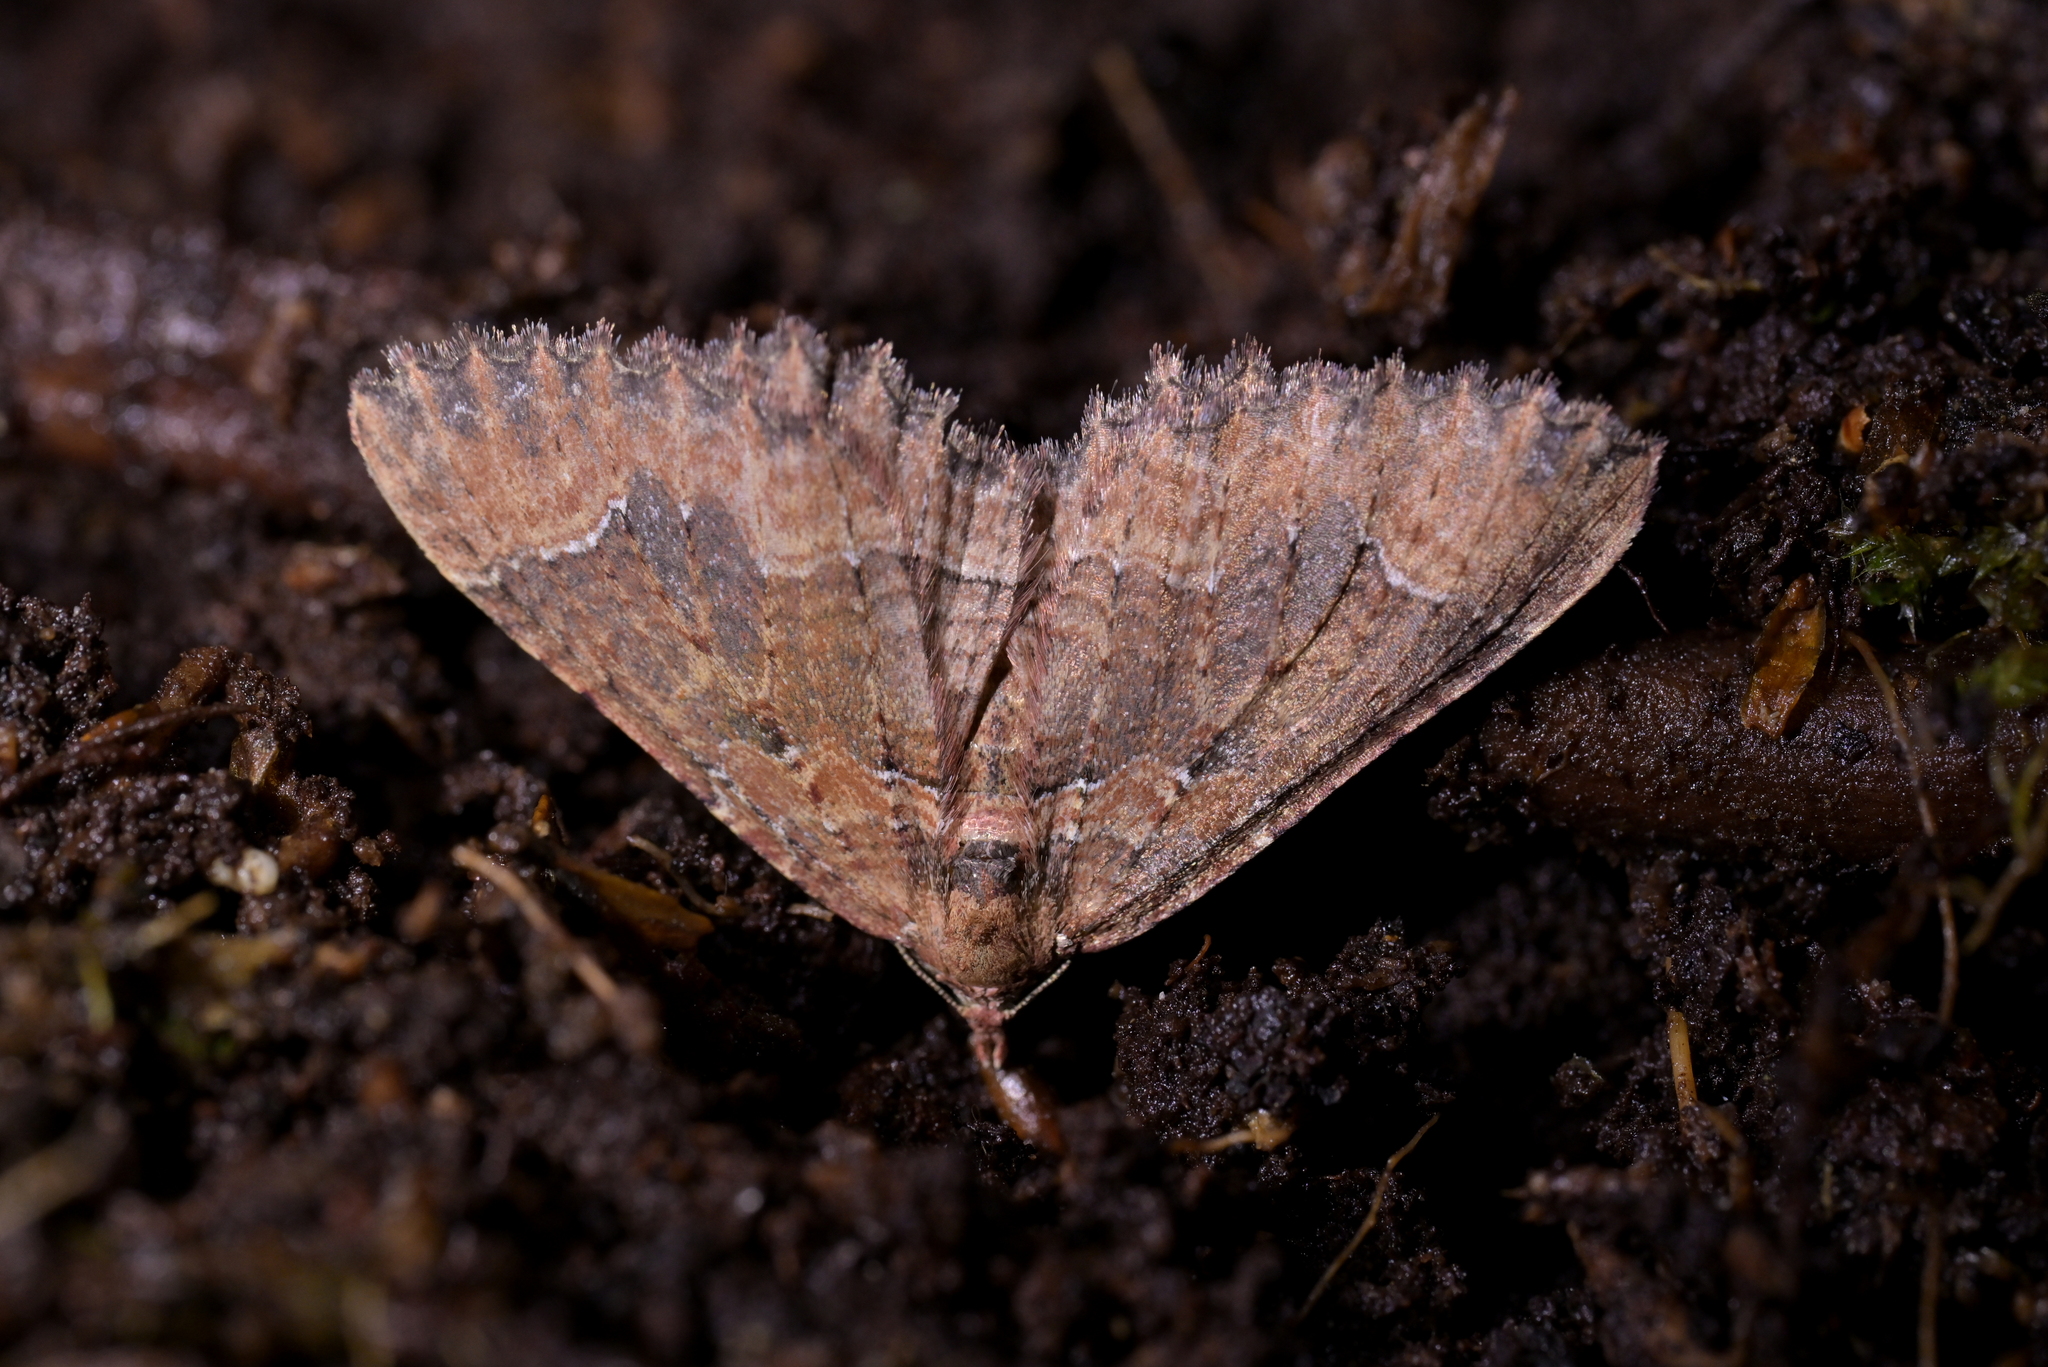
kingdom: Animalia
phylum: Arthropoda
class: Insecta
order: Lepidoptera
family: Geometridae
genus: Hydriomena
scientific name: Hydriomena hemizona
